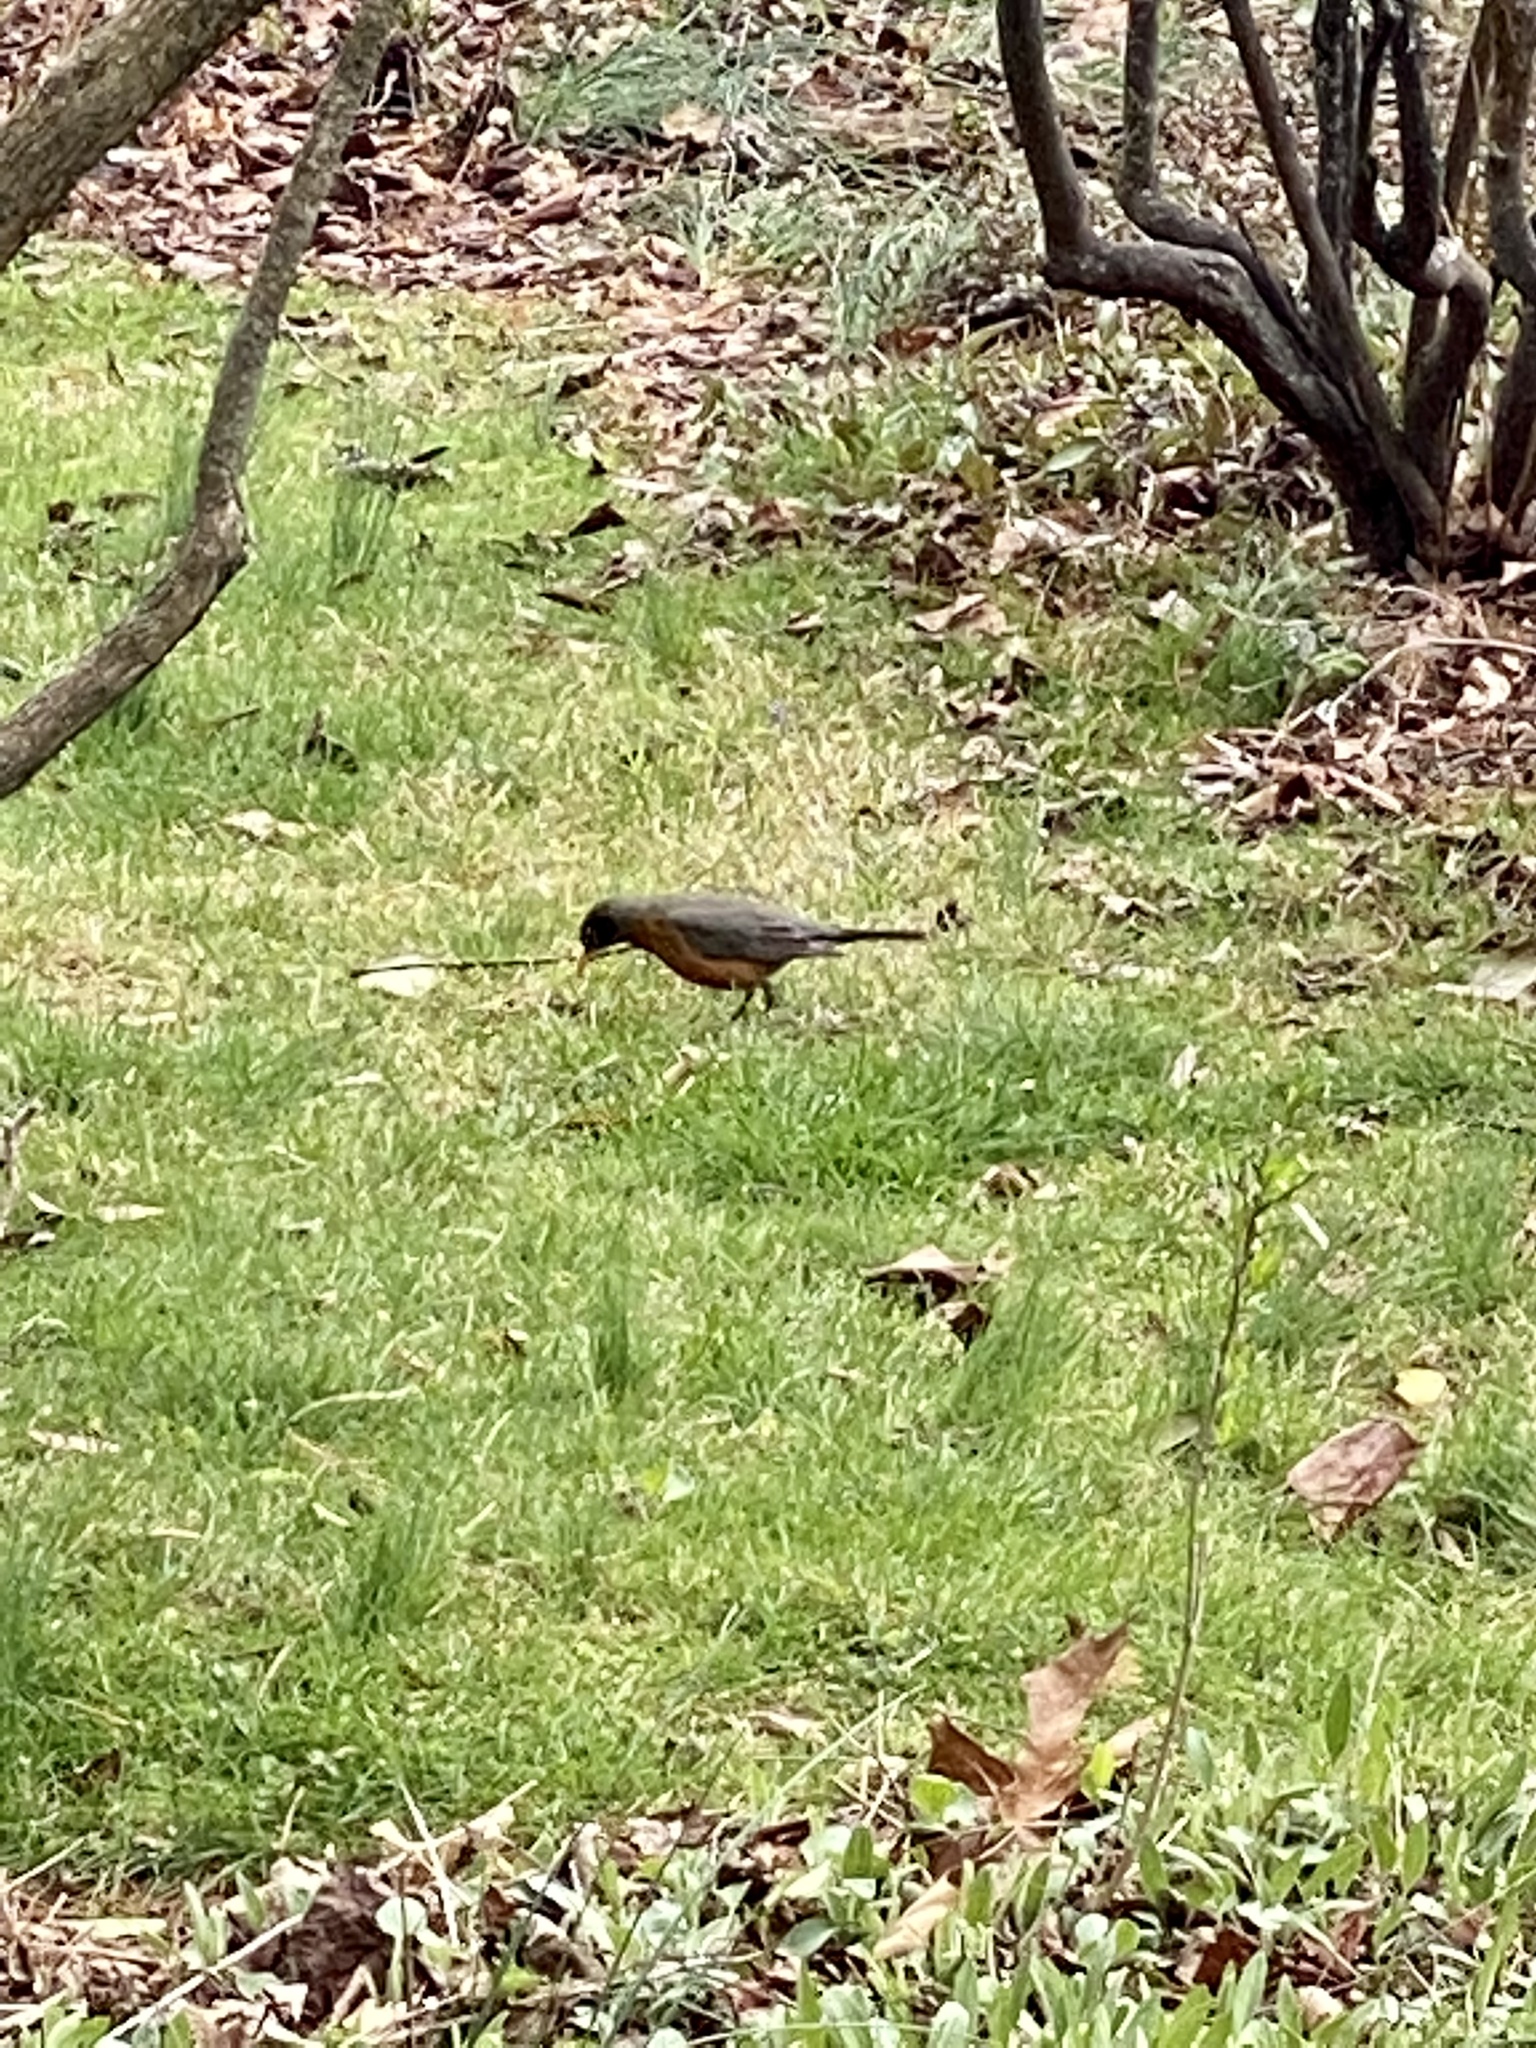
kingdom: Animalia
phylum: Chordata
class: Aves
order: Passeriformes
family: Turdidae
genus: Turdus
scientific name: Turdus migratorius
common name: American robin
